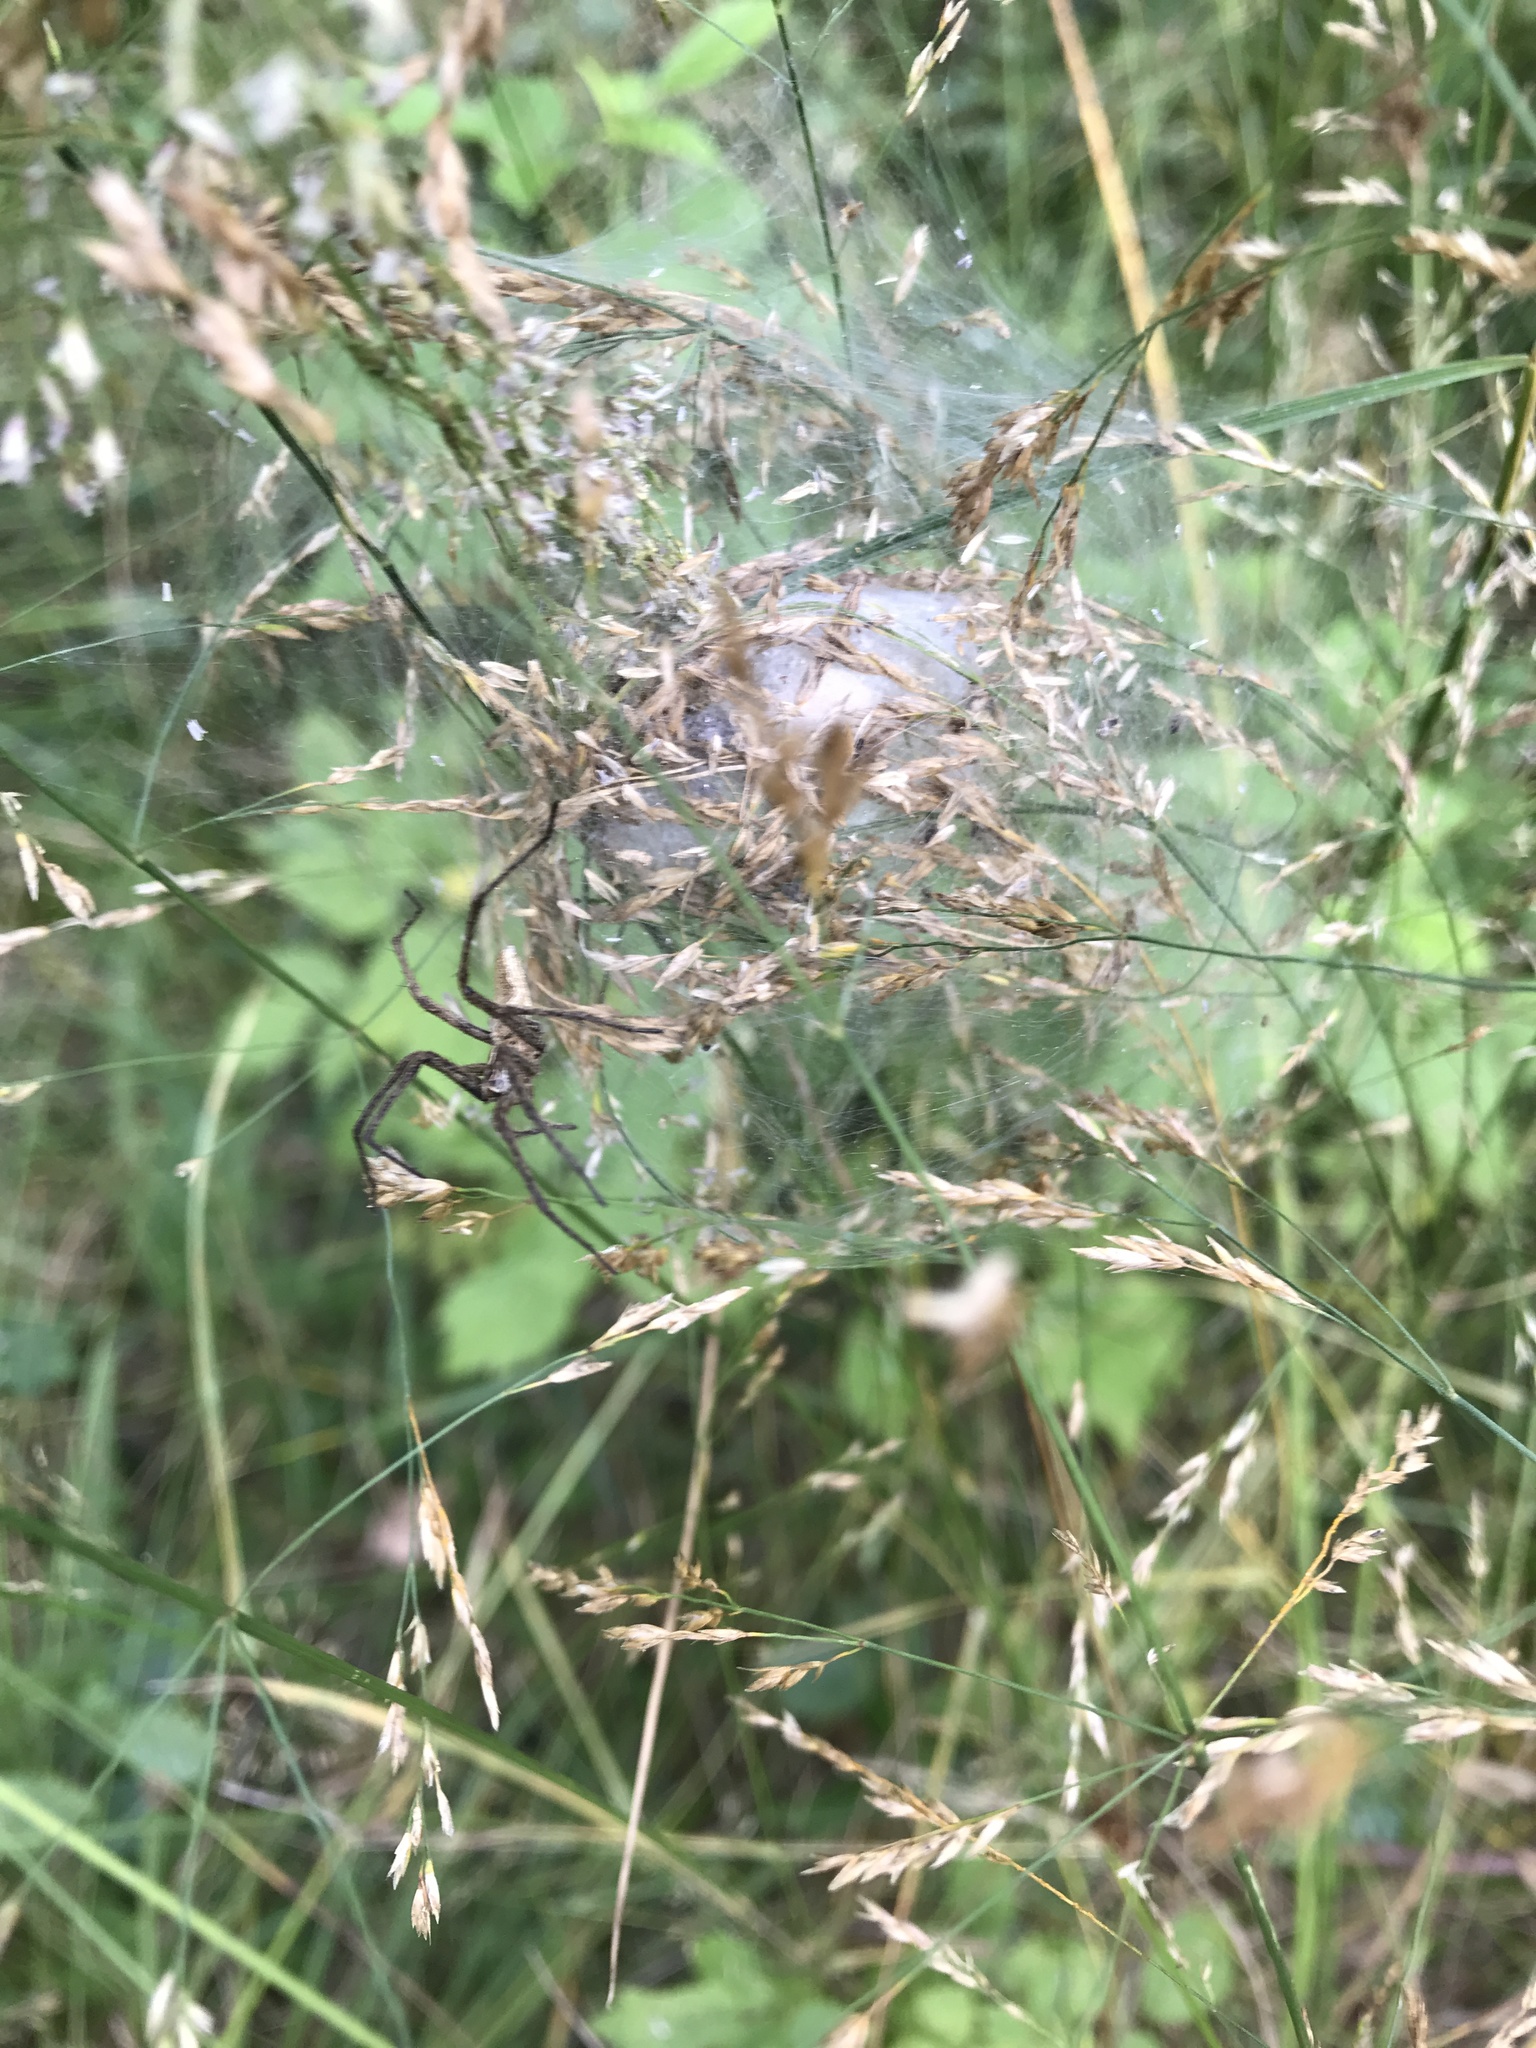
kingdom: Animalia
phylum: Arthropoda
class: Arachnida
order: Araneae
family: Pisauridae
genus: Pisaura
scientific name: Pisaura mirabilis
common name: Tent spider
